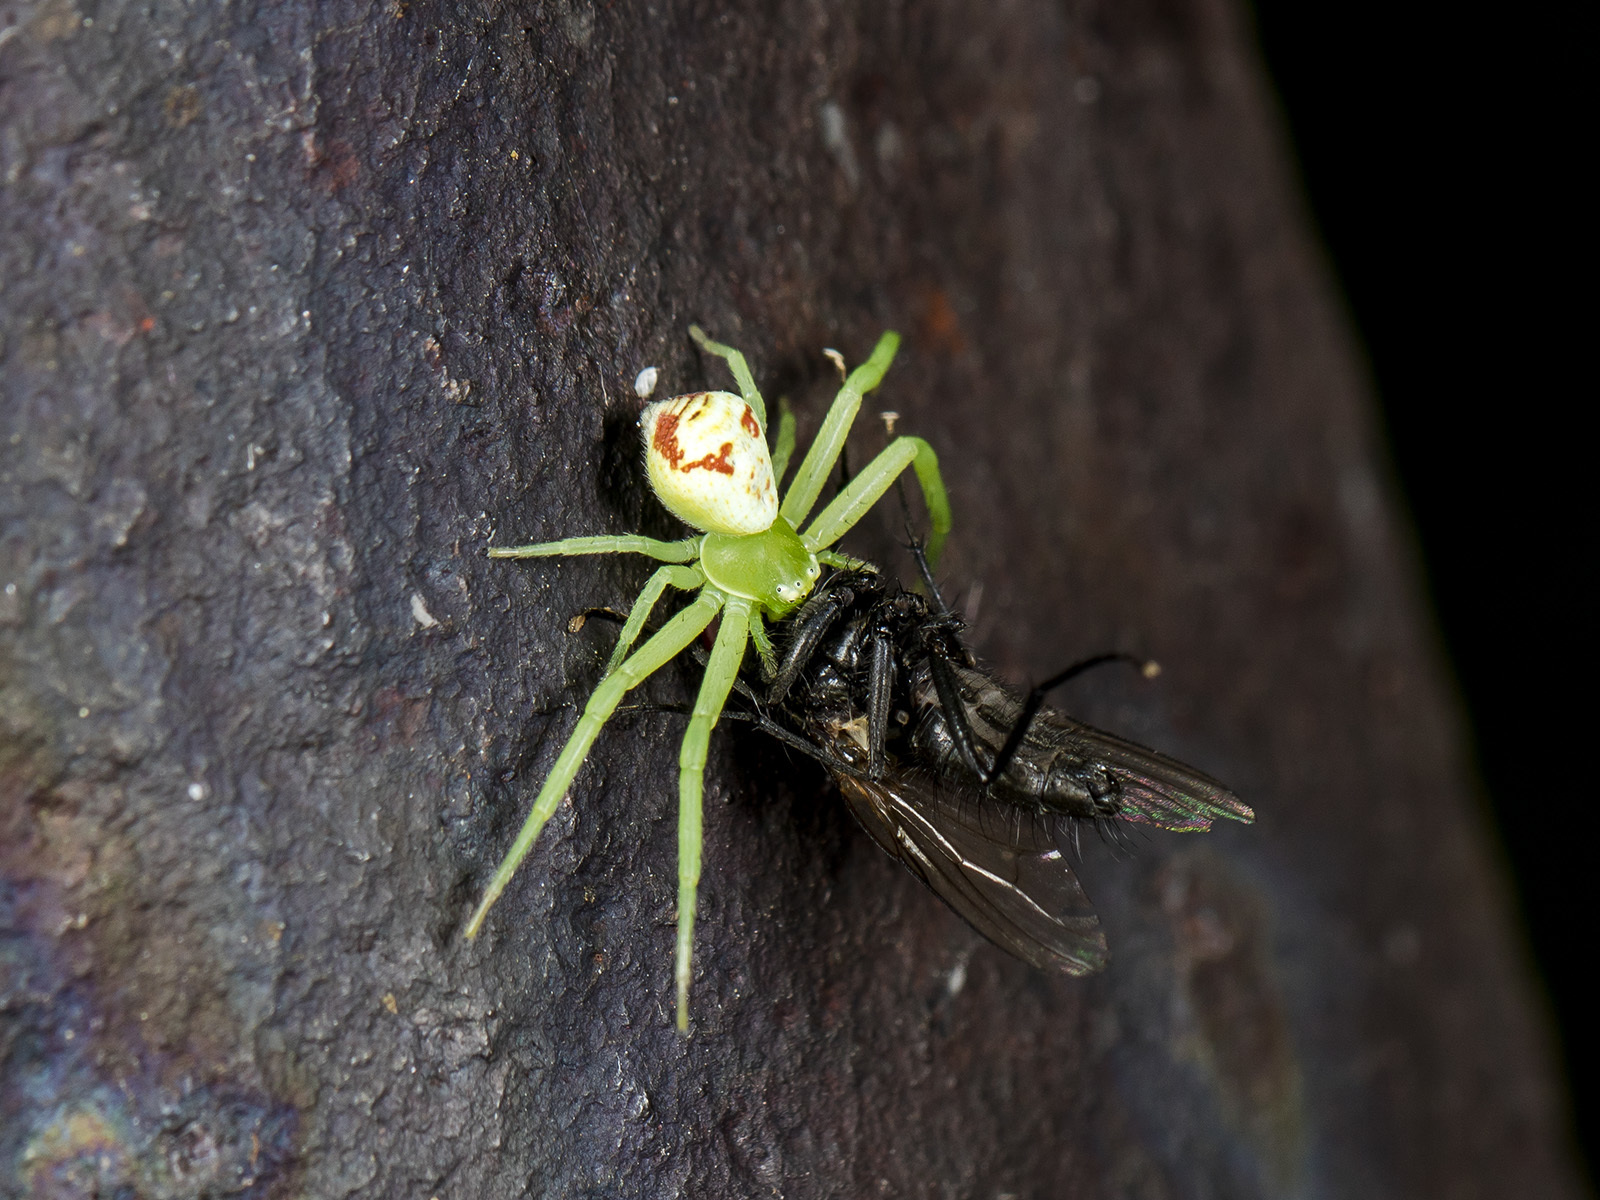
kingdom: Animalia
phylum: Arthropoda
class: Arachnida
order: Araneae
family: Thomisidae
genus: Ebrechtella
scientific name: Ebrechtella tricuspidata
